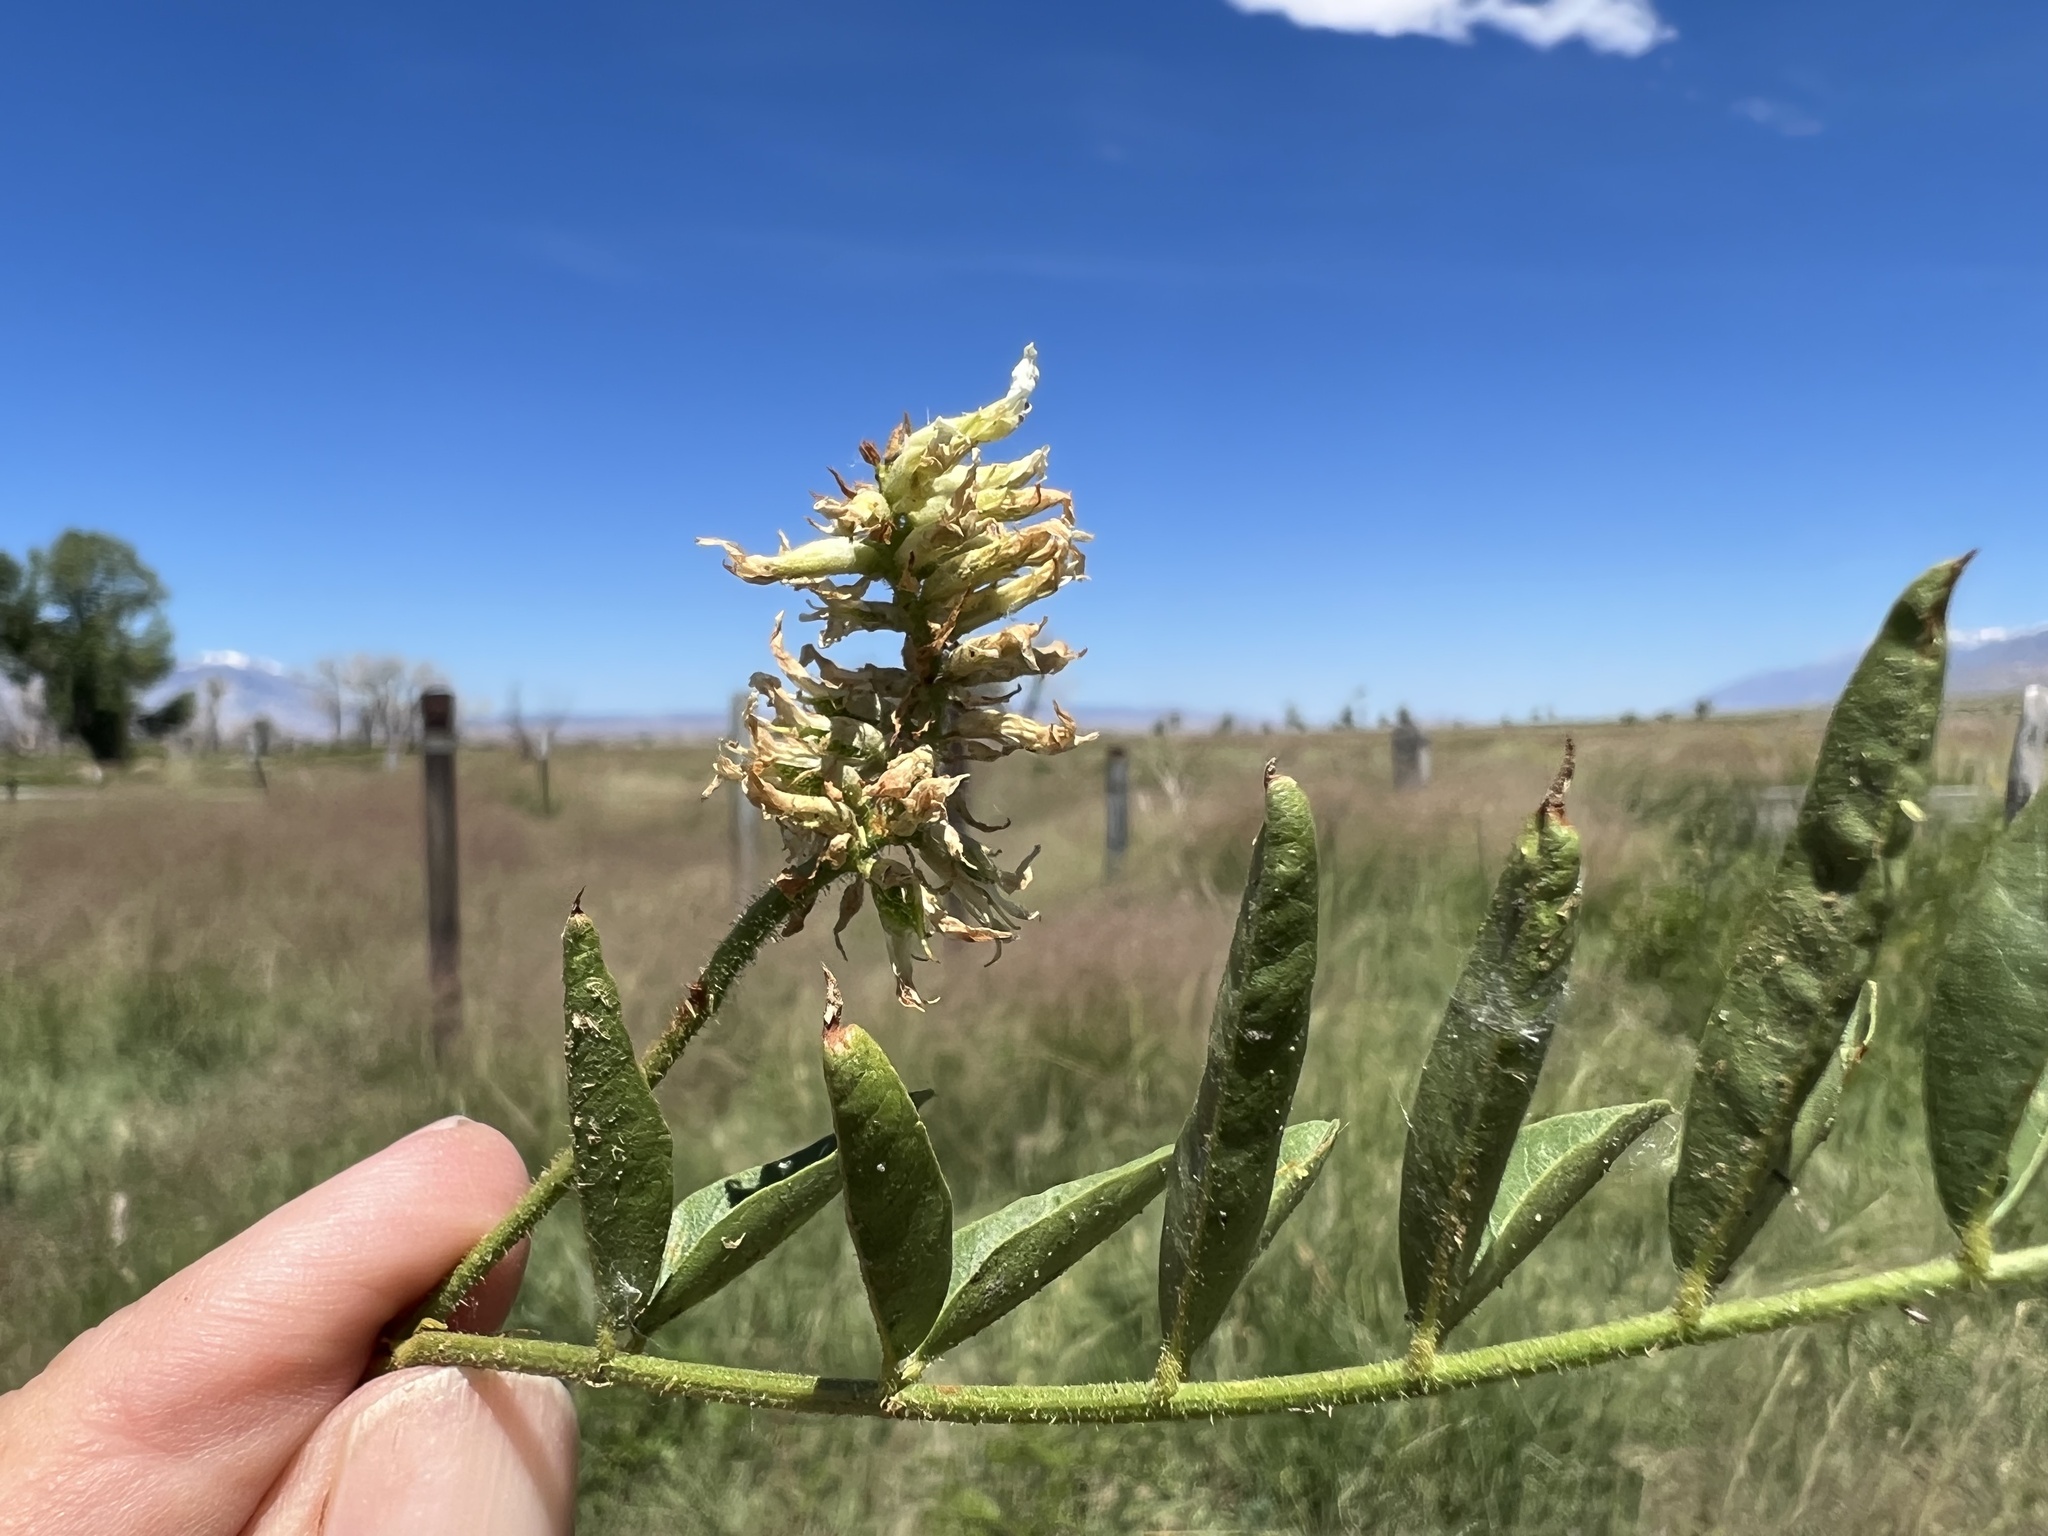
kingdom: Plantae
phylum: Tracheophyta
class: Magnoliopsida
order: Fabales
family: Fabaceae
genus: Glycyrrhiza
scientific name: Glycyrrhiza lepidota
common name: American liquorice
